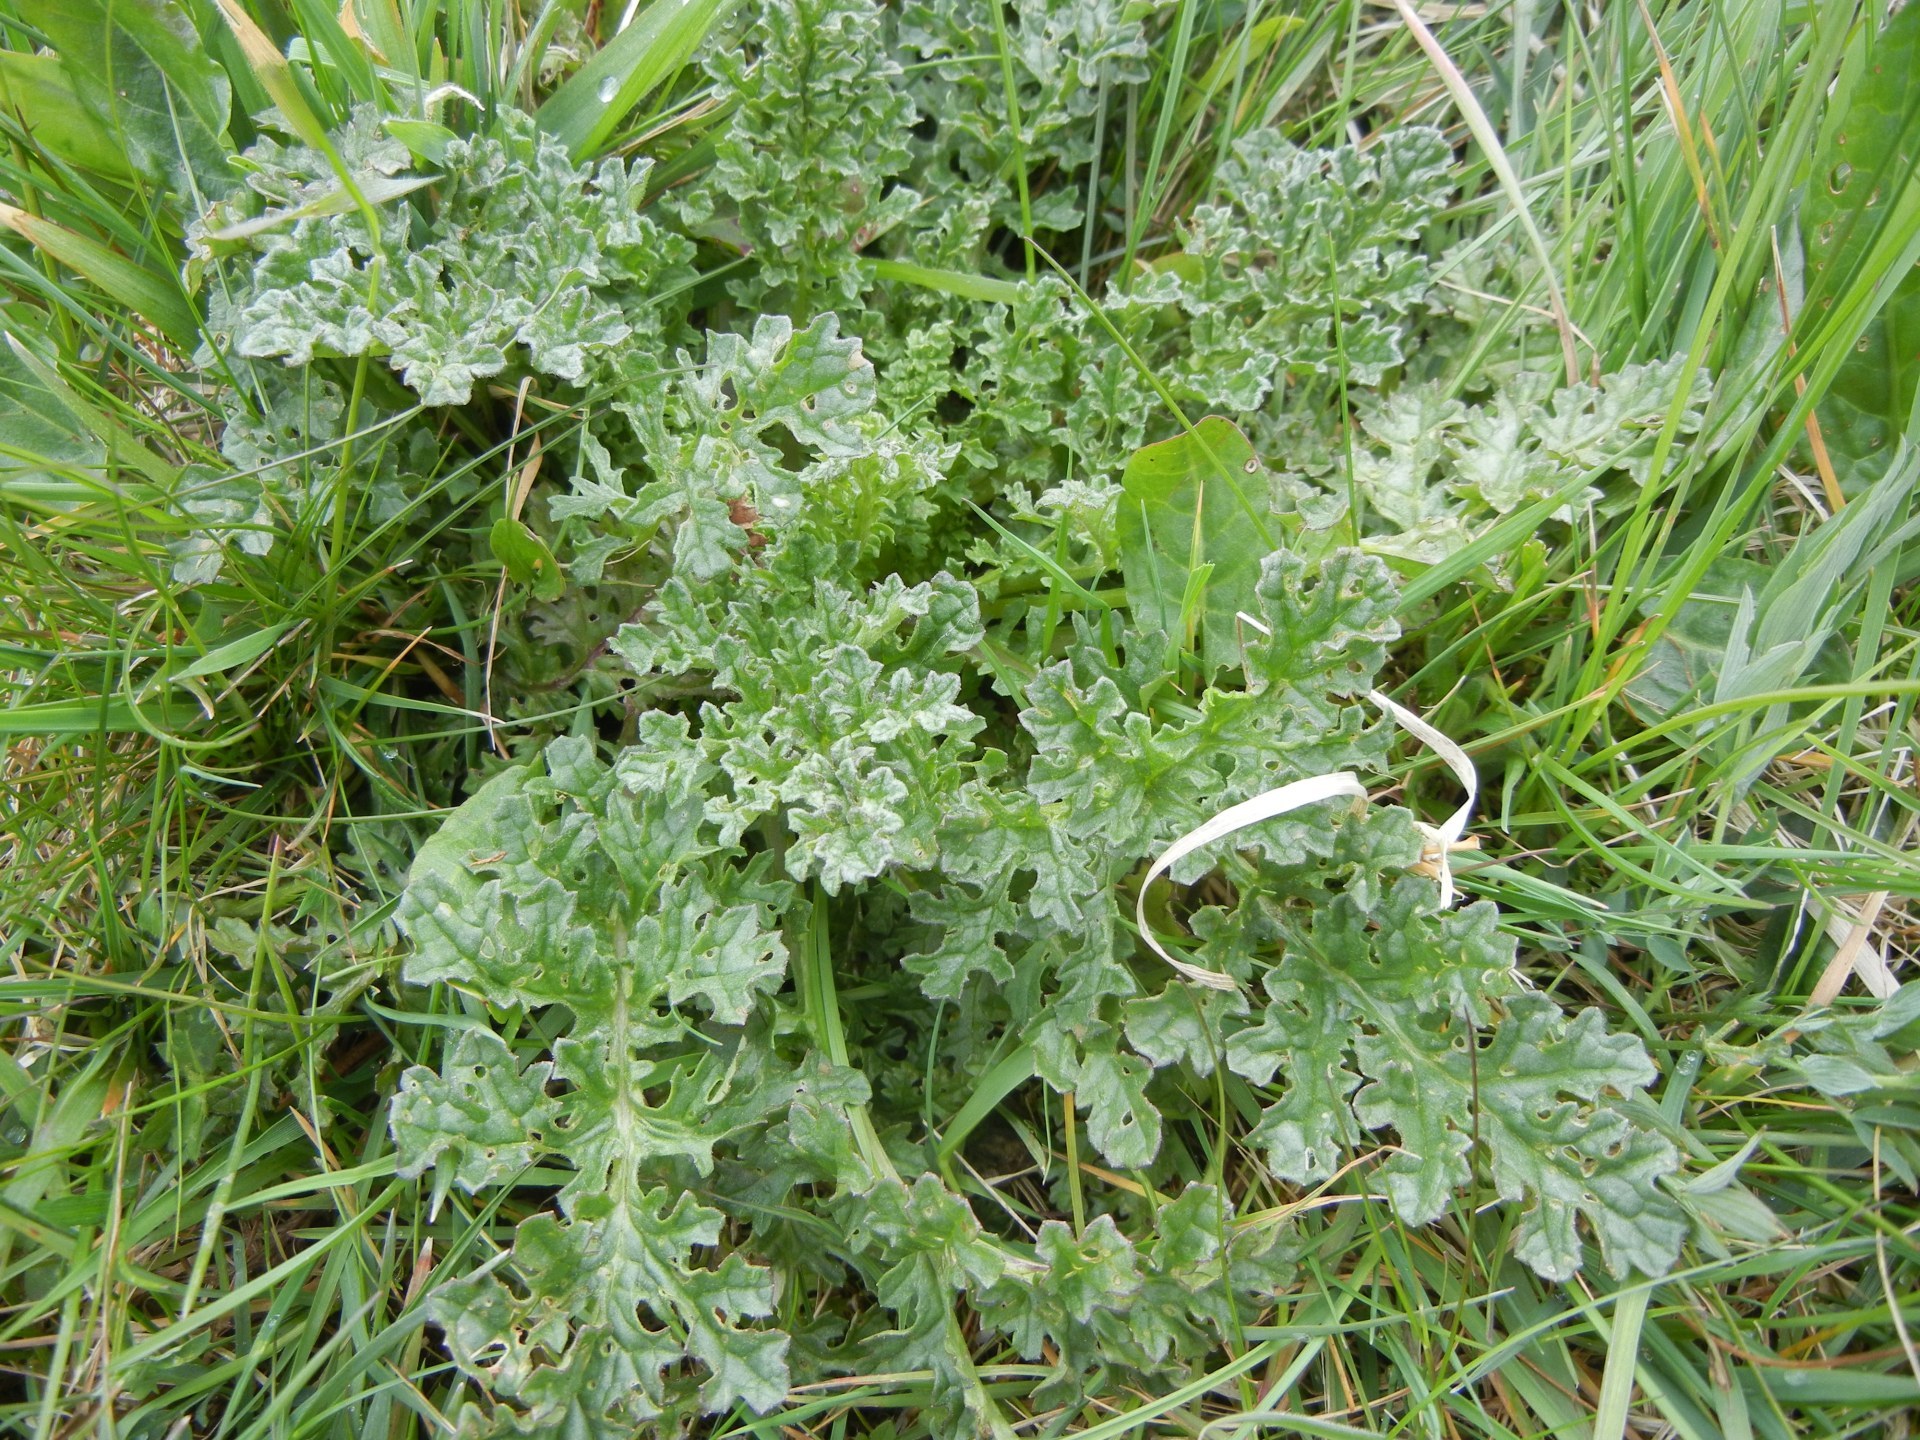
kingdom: Plantae
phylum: Tracheophyta
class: Magnoliopsida
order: Asterales
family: Asteraceae
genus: Jacobaea
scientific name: Jacobaea vulgaris
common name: Stinking willie
